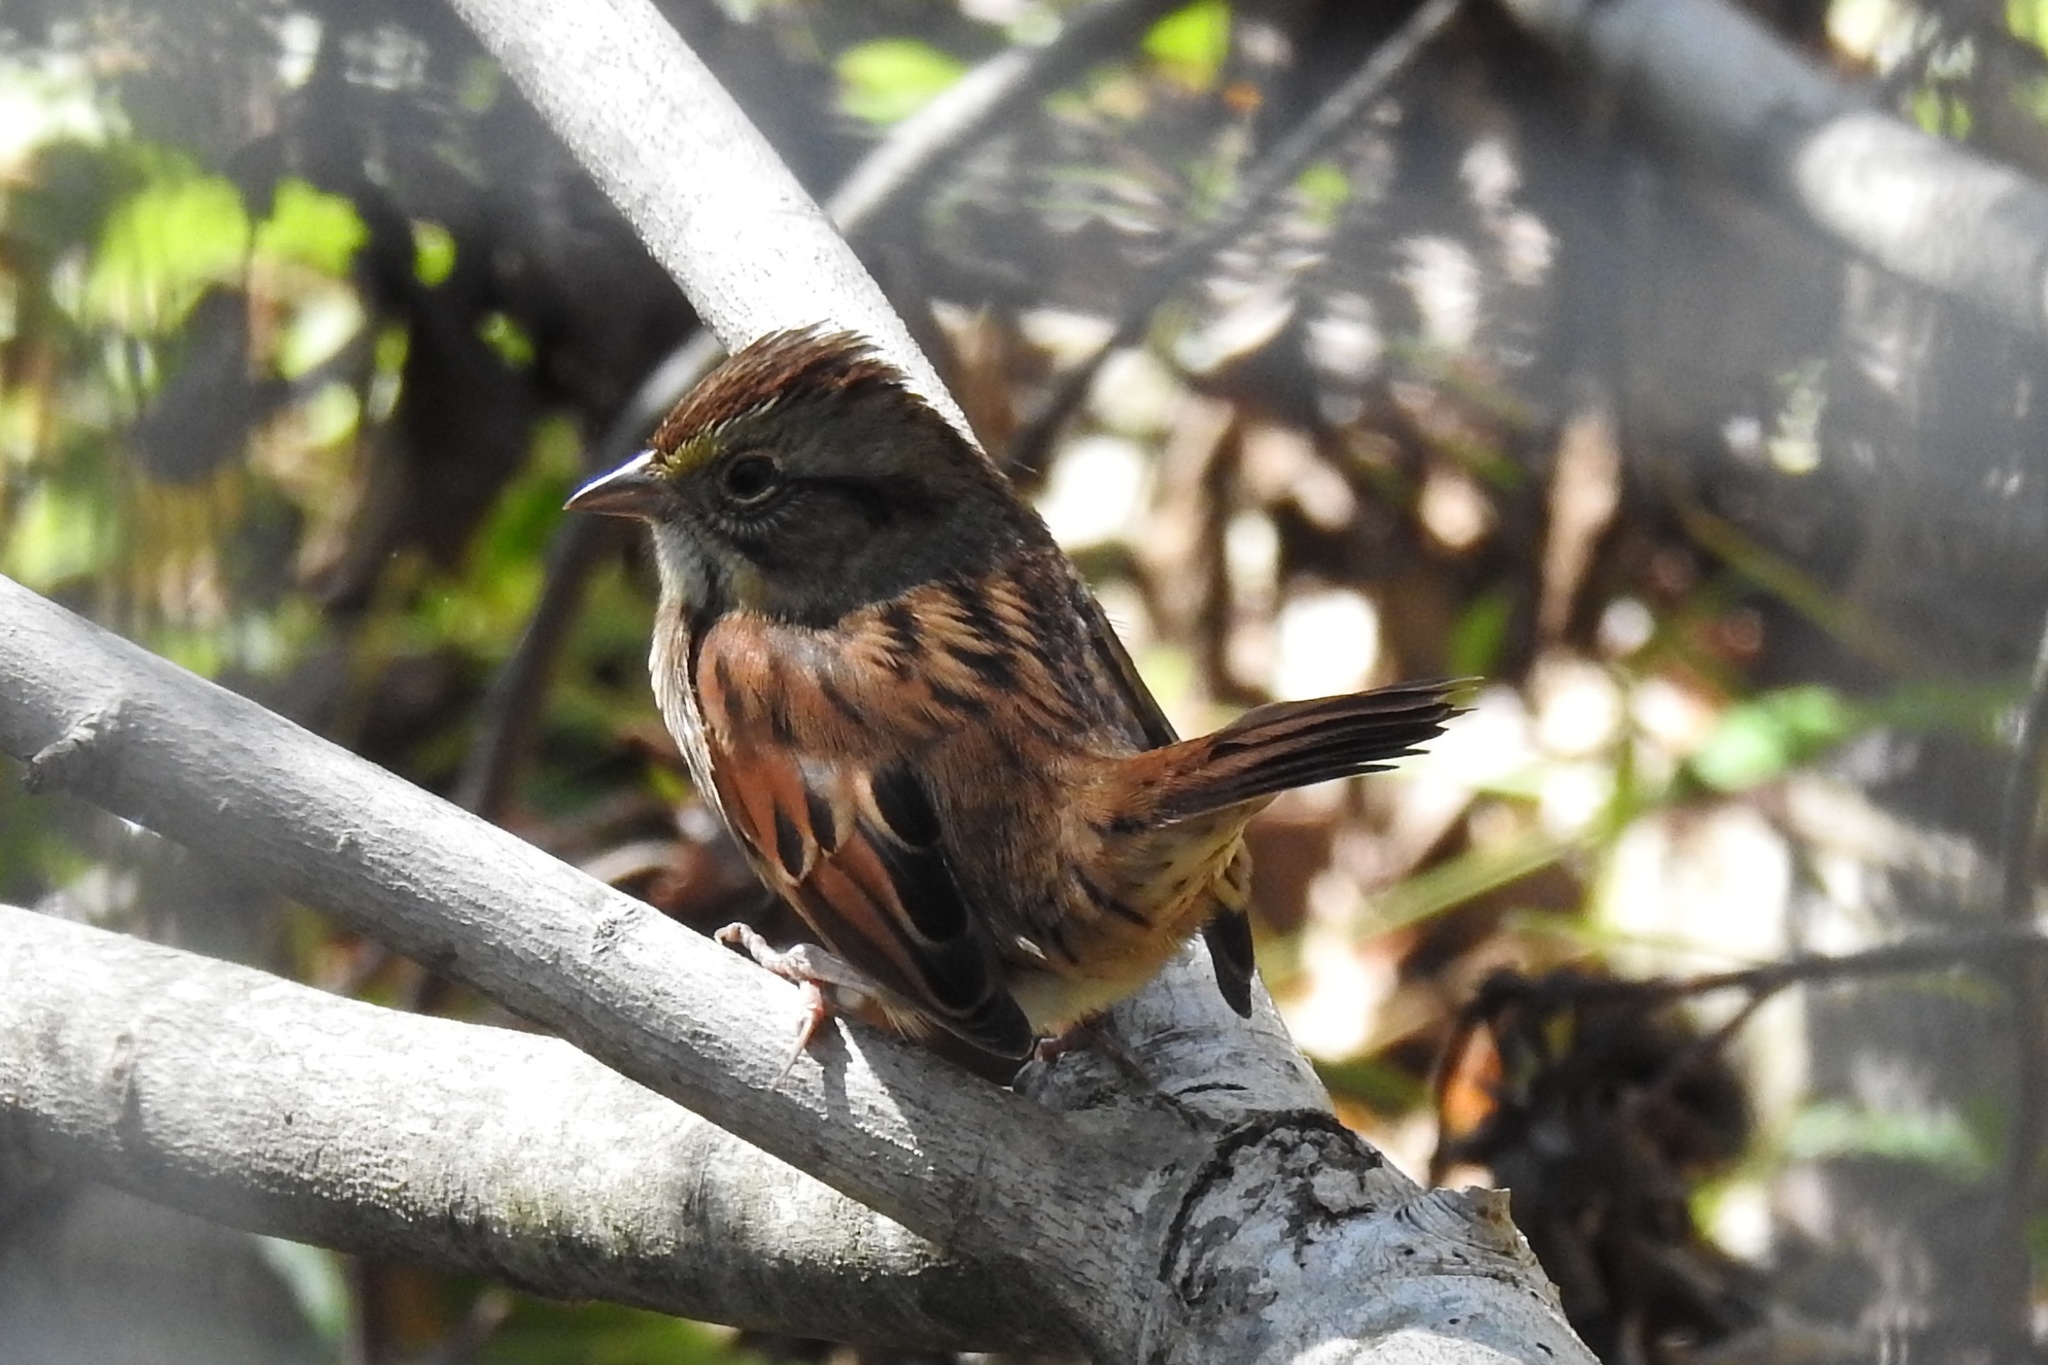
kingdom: Animalia
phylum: Chordata
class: Aves
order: Passeriformes
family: Passerellidae
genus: Melospiza
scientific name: Melospiza georgiana
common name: Swamp sparrow
